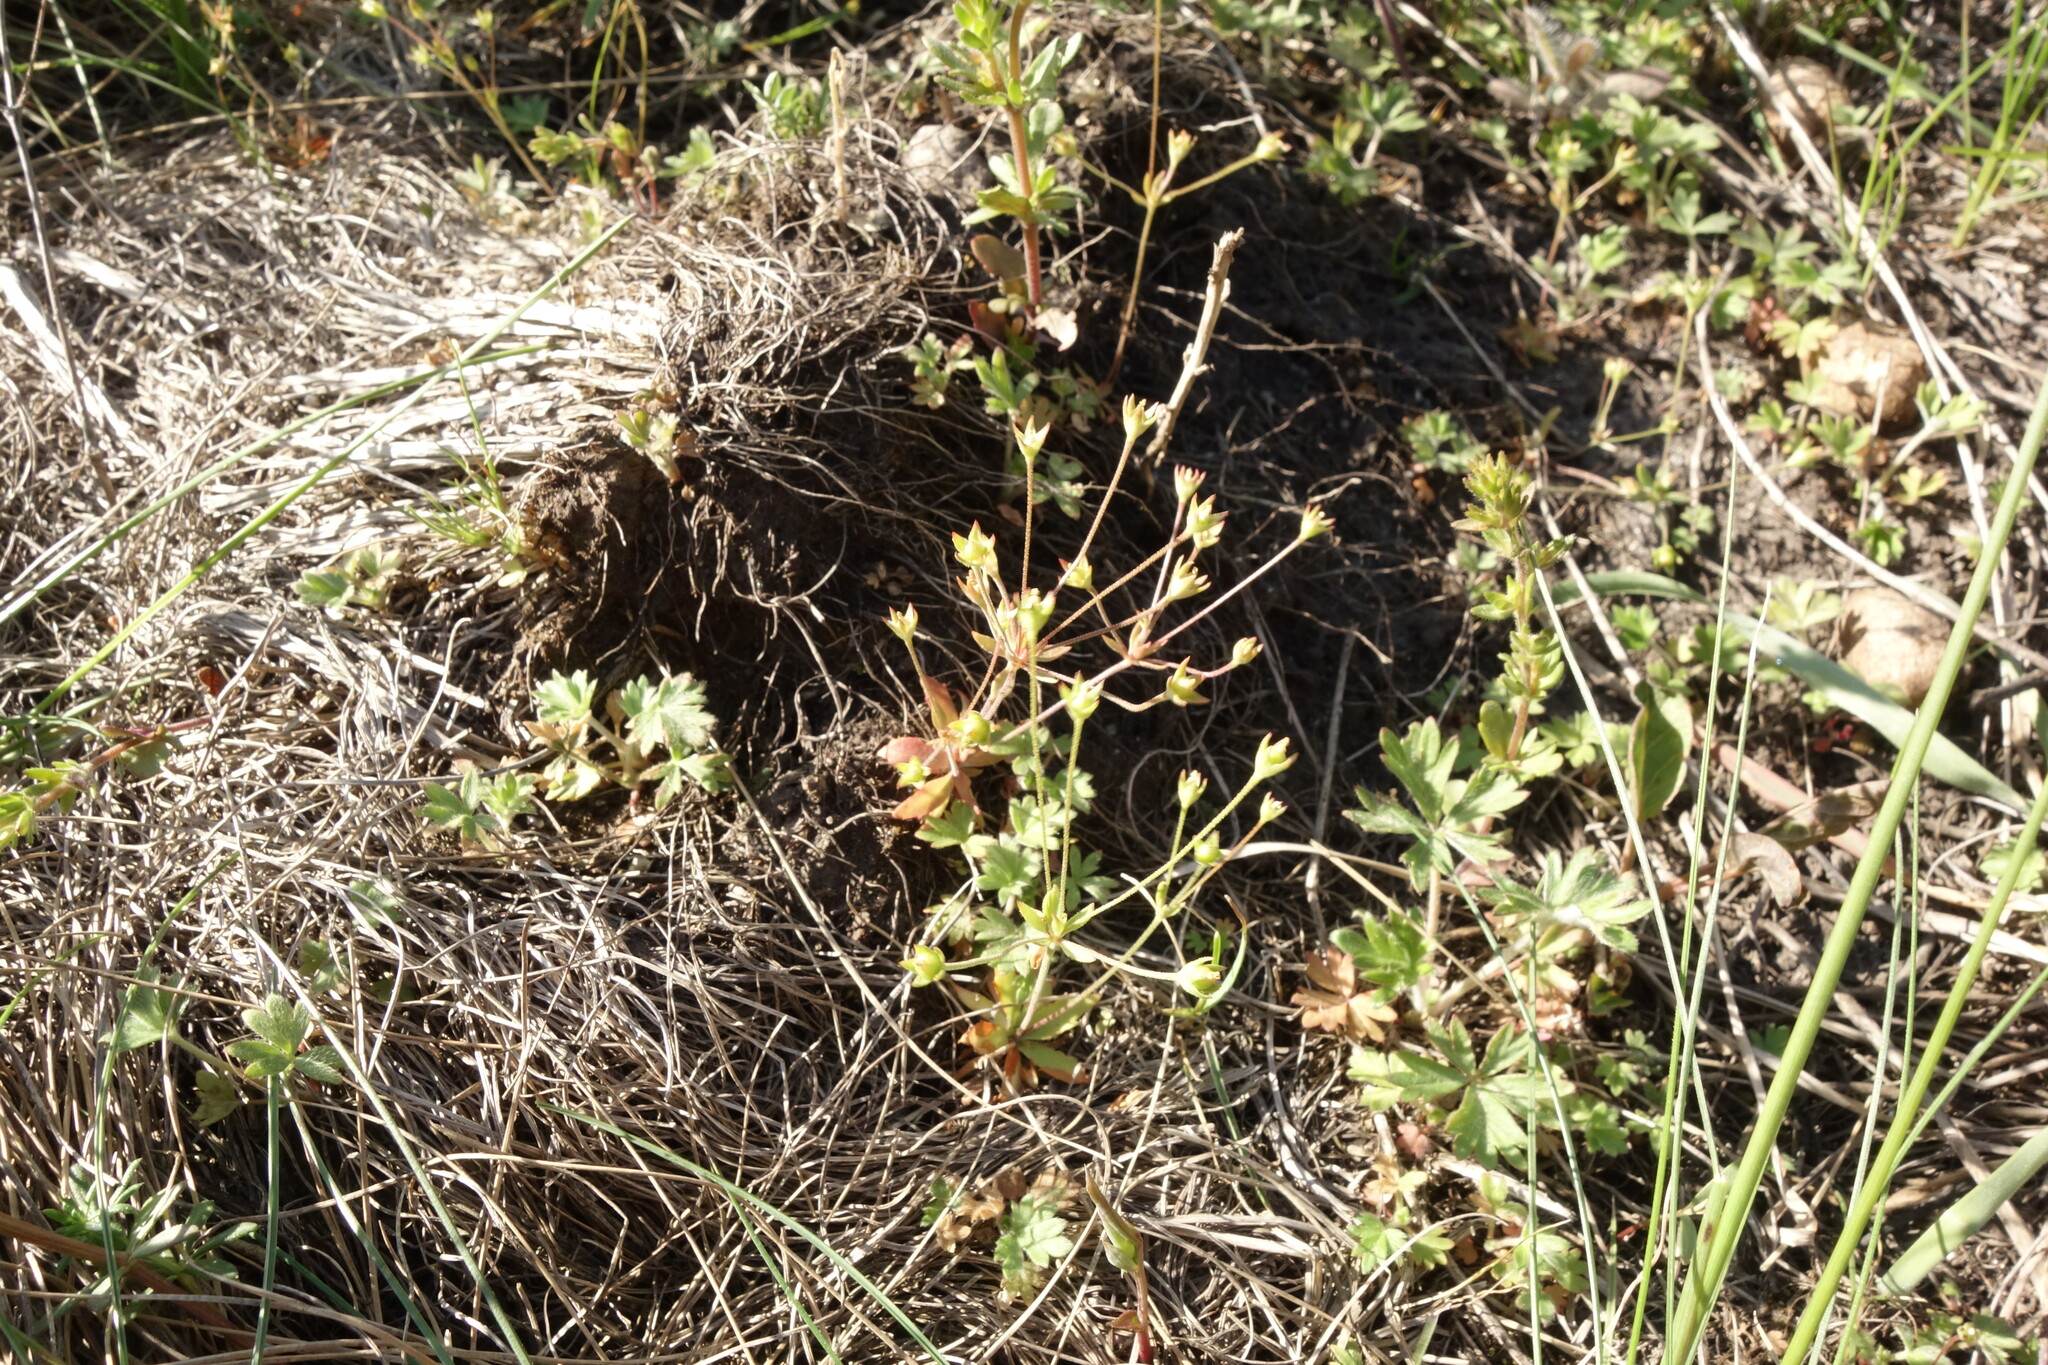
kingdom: Plantae
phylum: Tracheophyta
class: Magnoliopsida
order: Ericales
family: Primulaceae
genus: Androsace
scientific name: Androsace elongata
